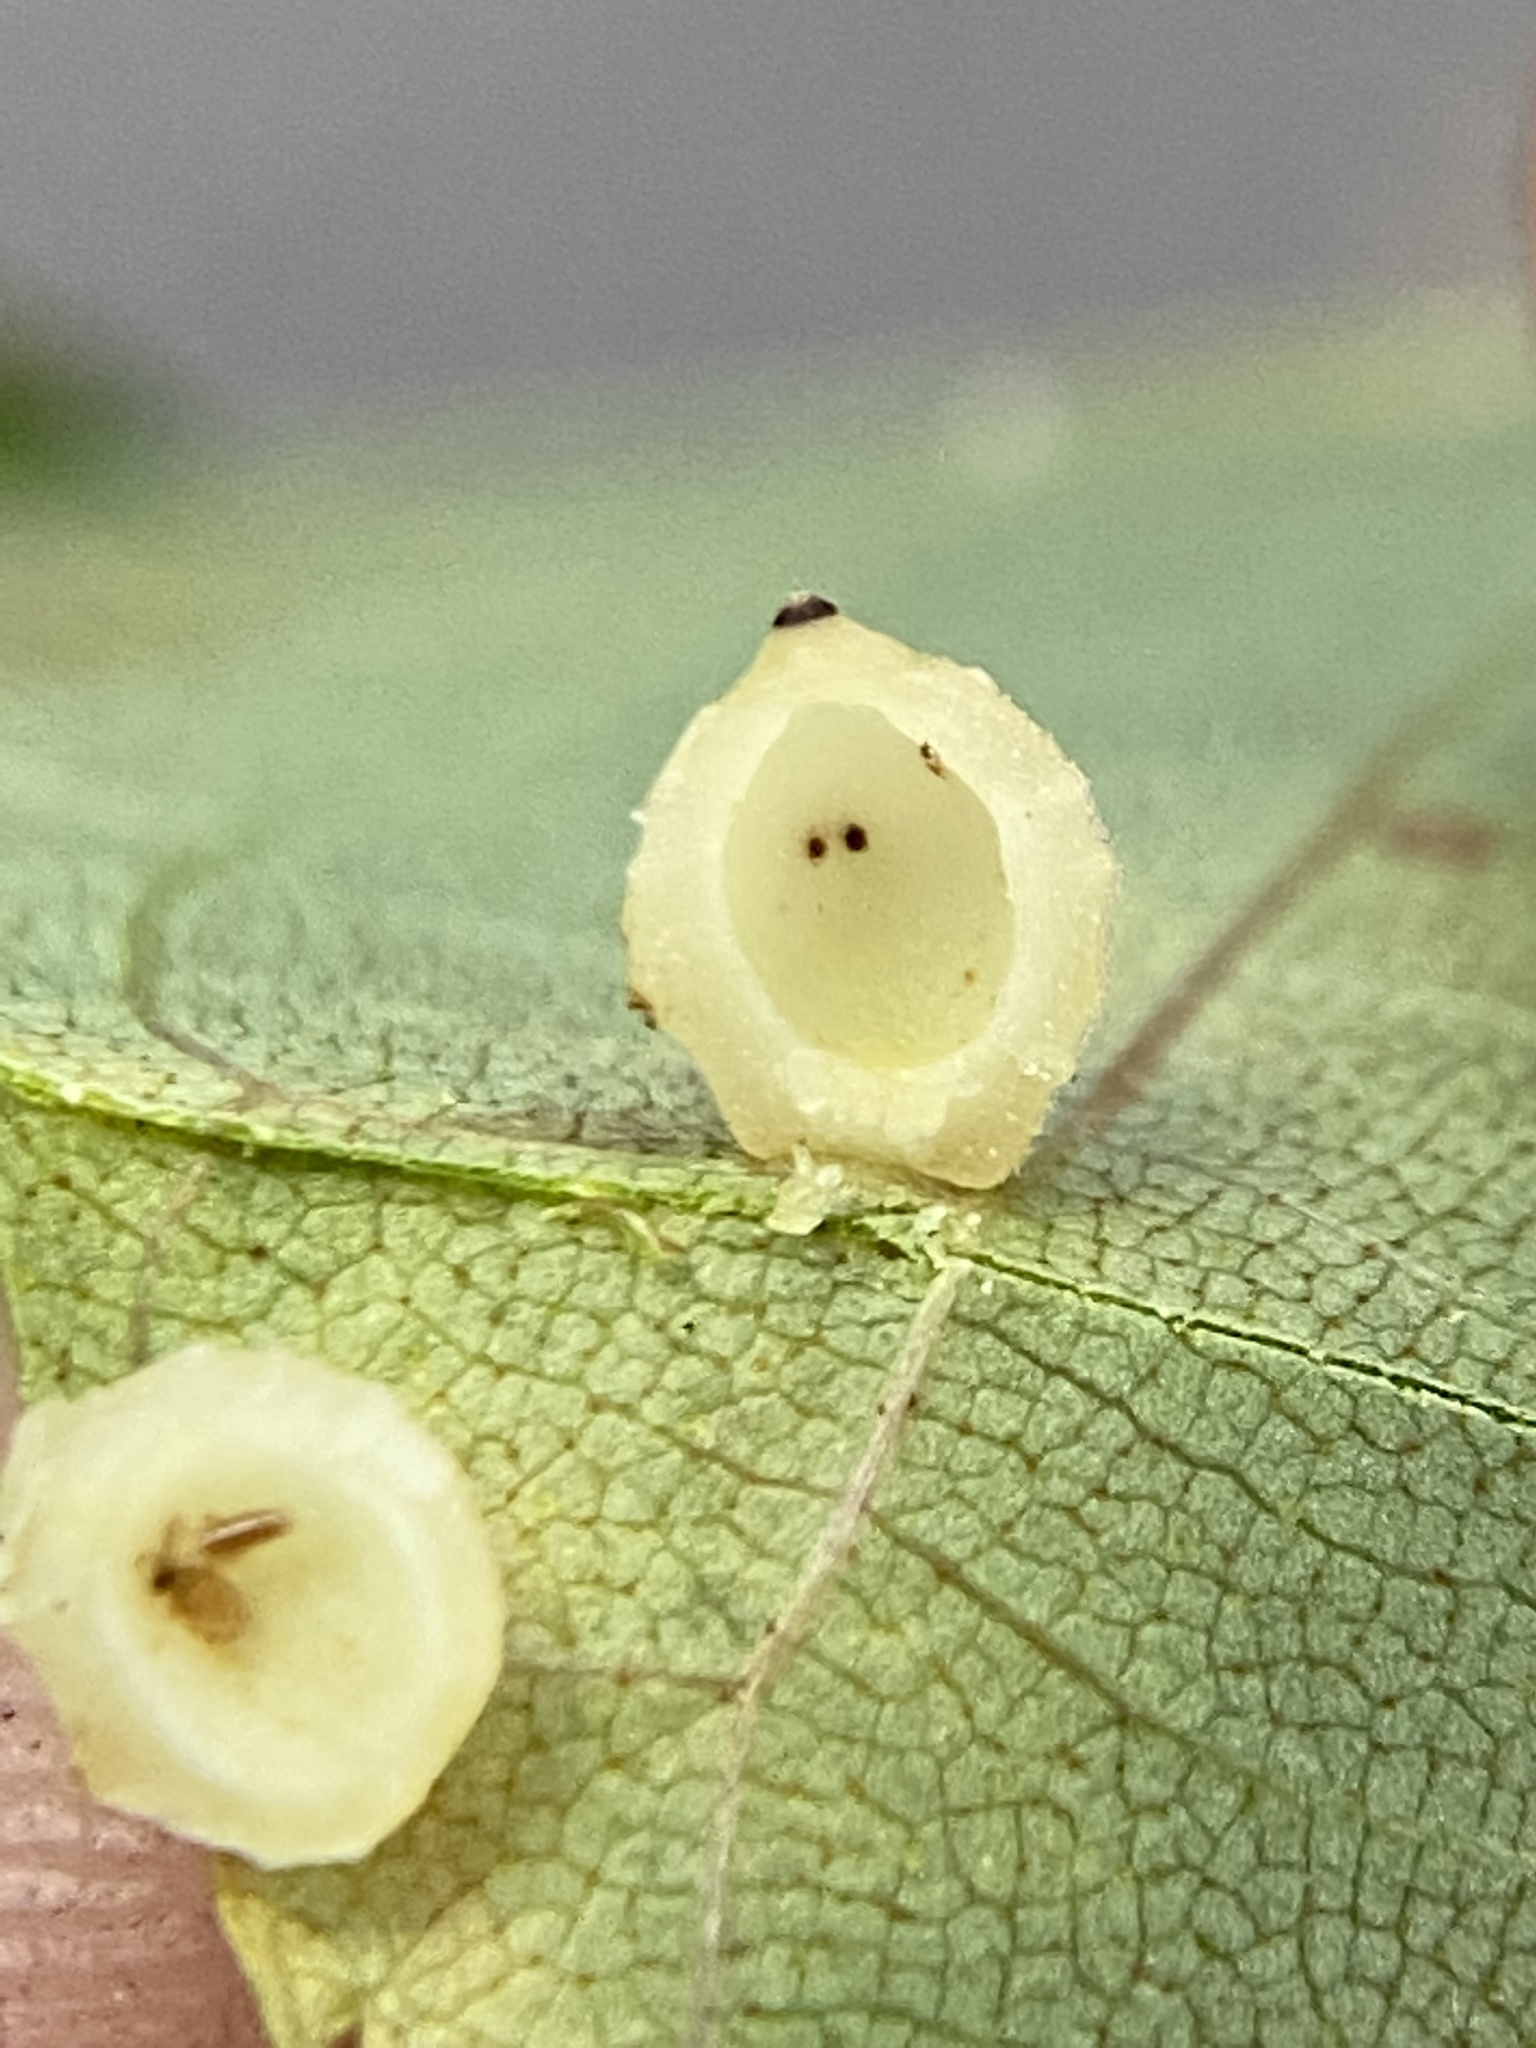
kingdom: Animalia
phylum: Arthropoda
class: Insecta
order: Diptera
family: Cecidomyiidae
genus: Caryomyia
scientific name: Caryomyia tuberidolium
